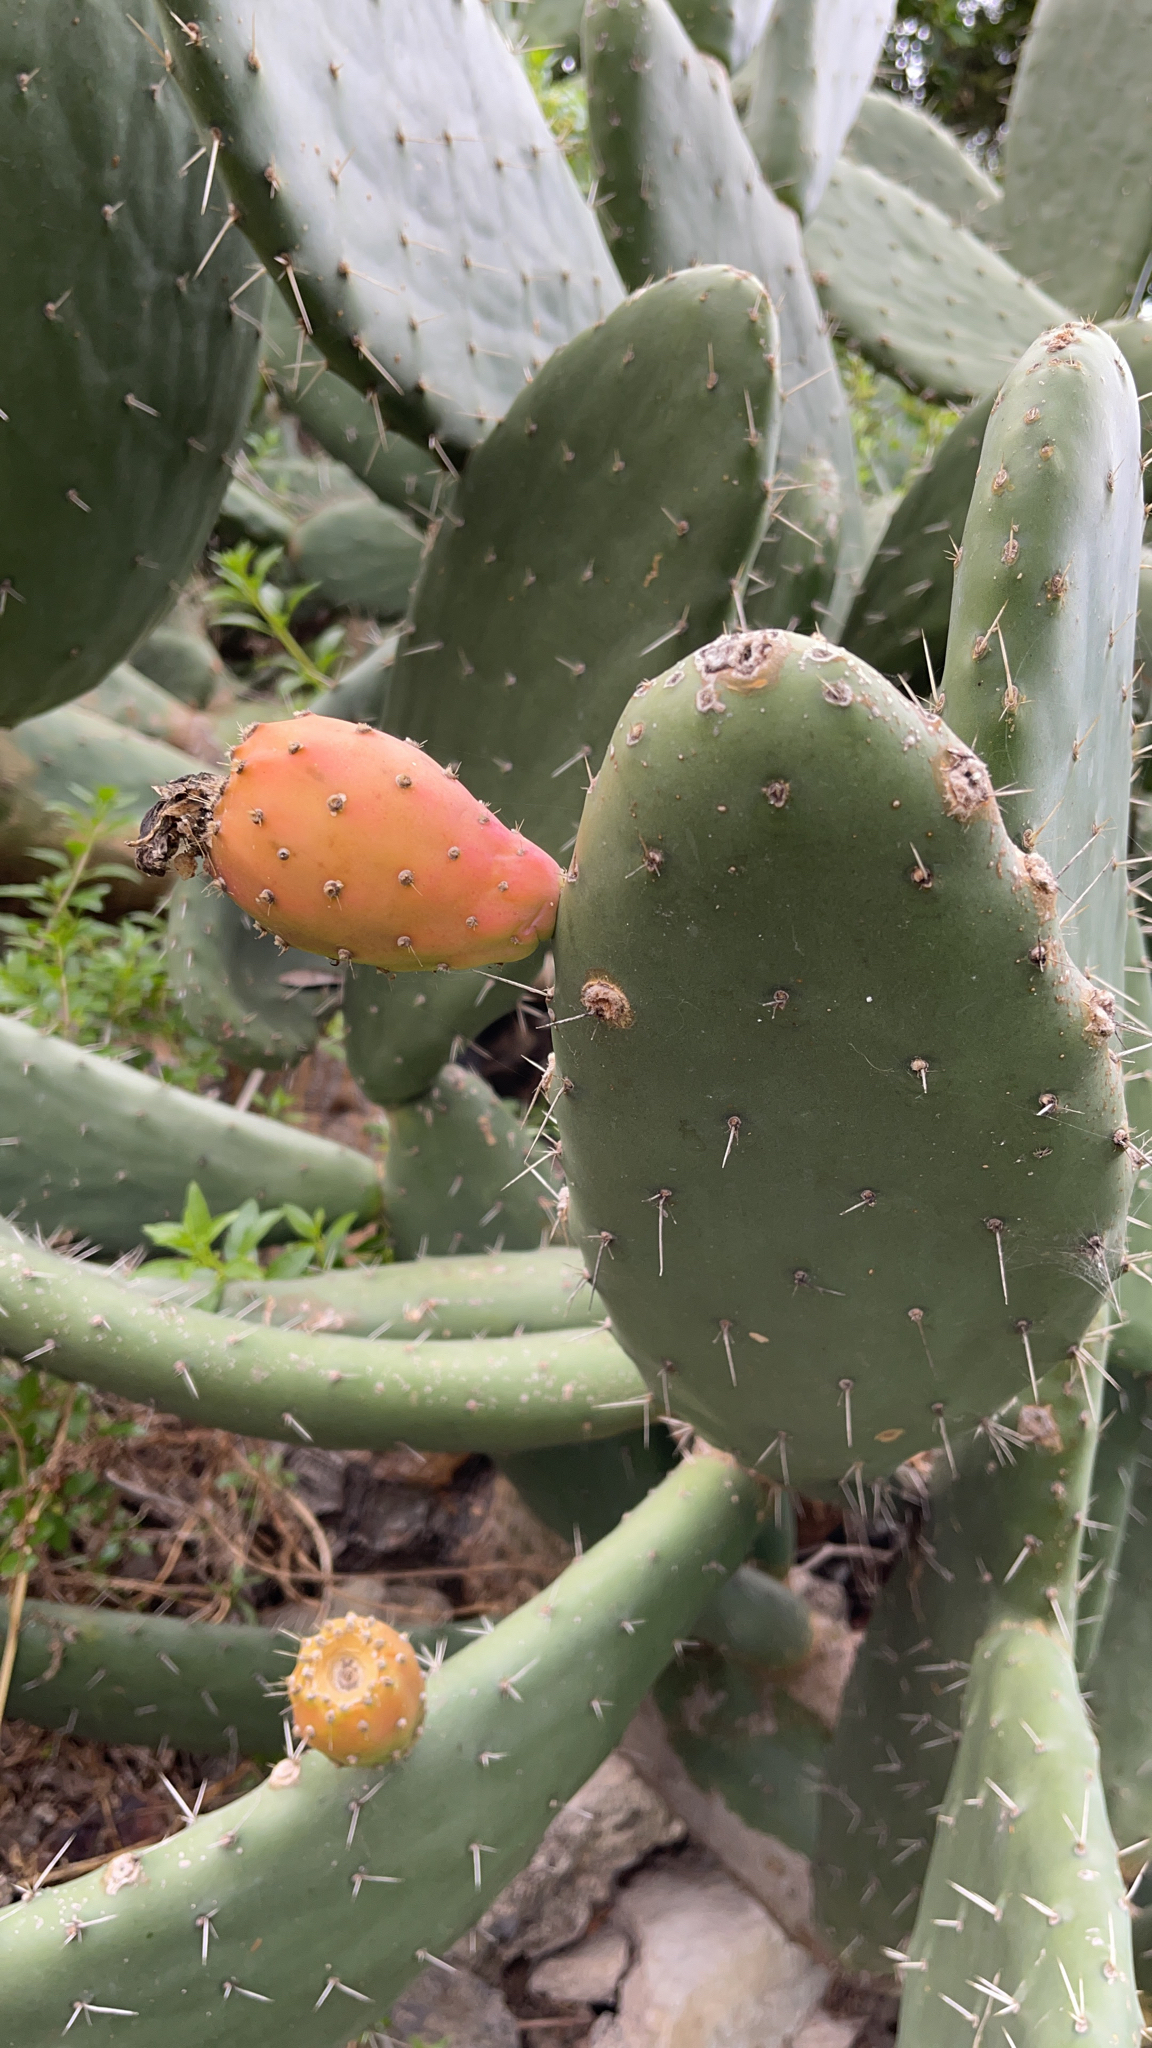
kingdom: Plantae
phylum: Tracheophyta
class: Magnoliopsida
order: Caryophyllales
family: Cactaceae
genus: Opuntia
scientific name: Opuntia ficus-indica
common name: Barbary fig
